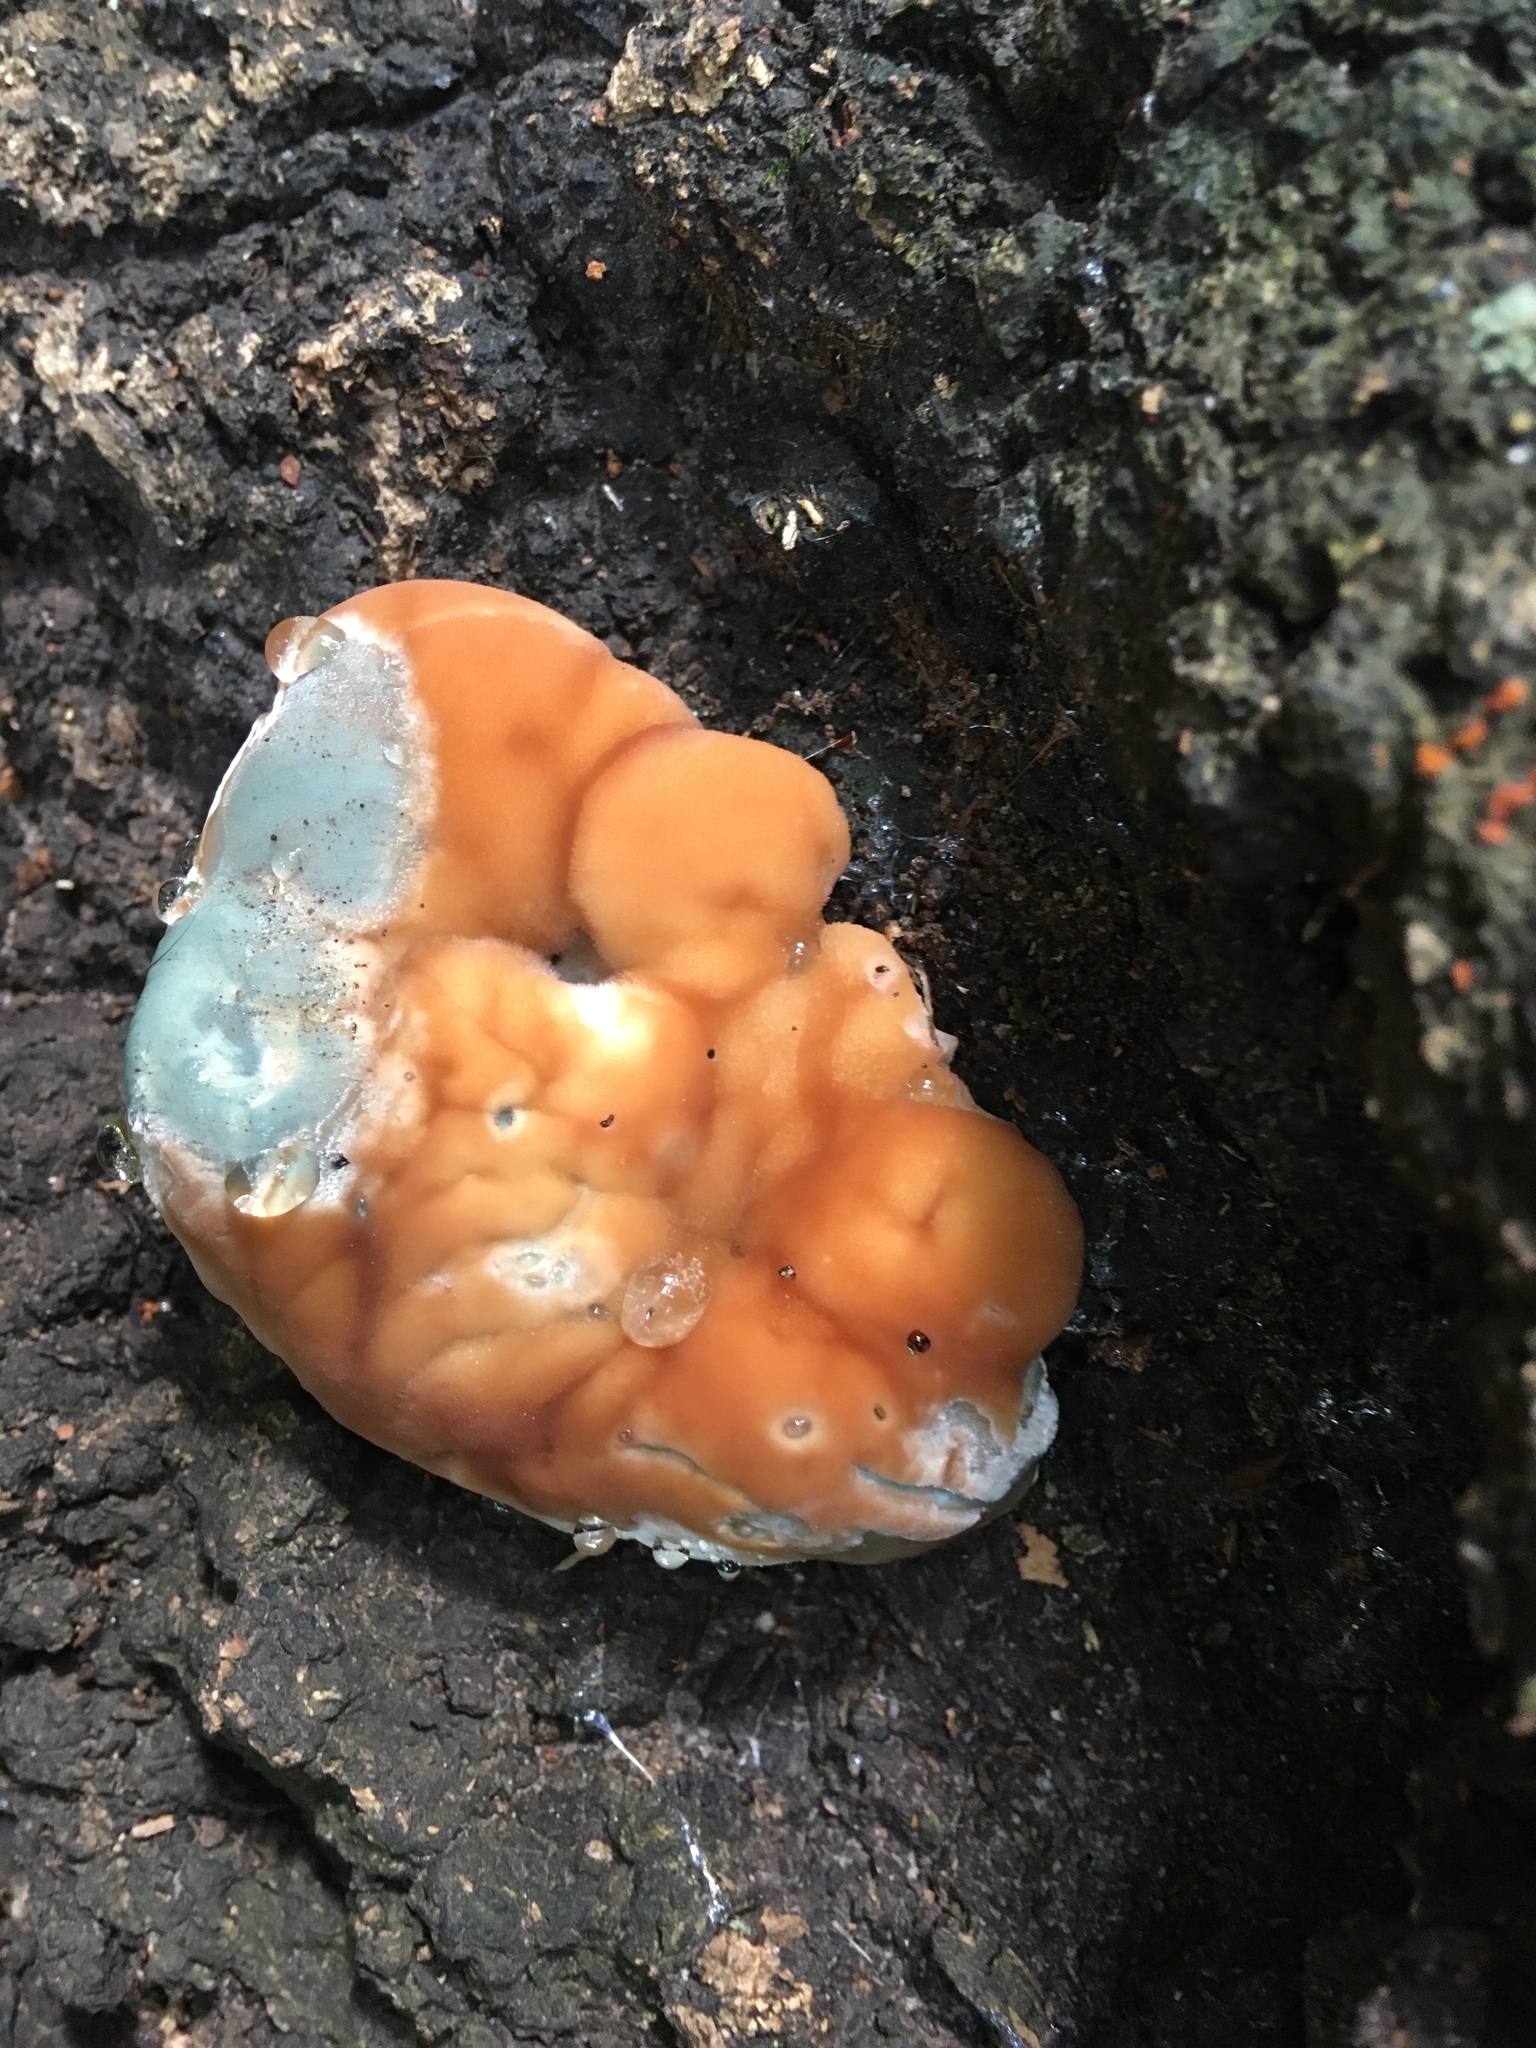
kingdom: Fungi
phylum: Basidiomycota
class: Agaricomycetes
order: Polyporales
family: Fomitopsidaceae
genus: Niveoporofomes
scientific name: Niveoporofomes spraguei
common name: Green cheese polypore
